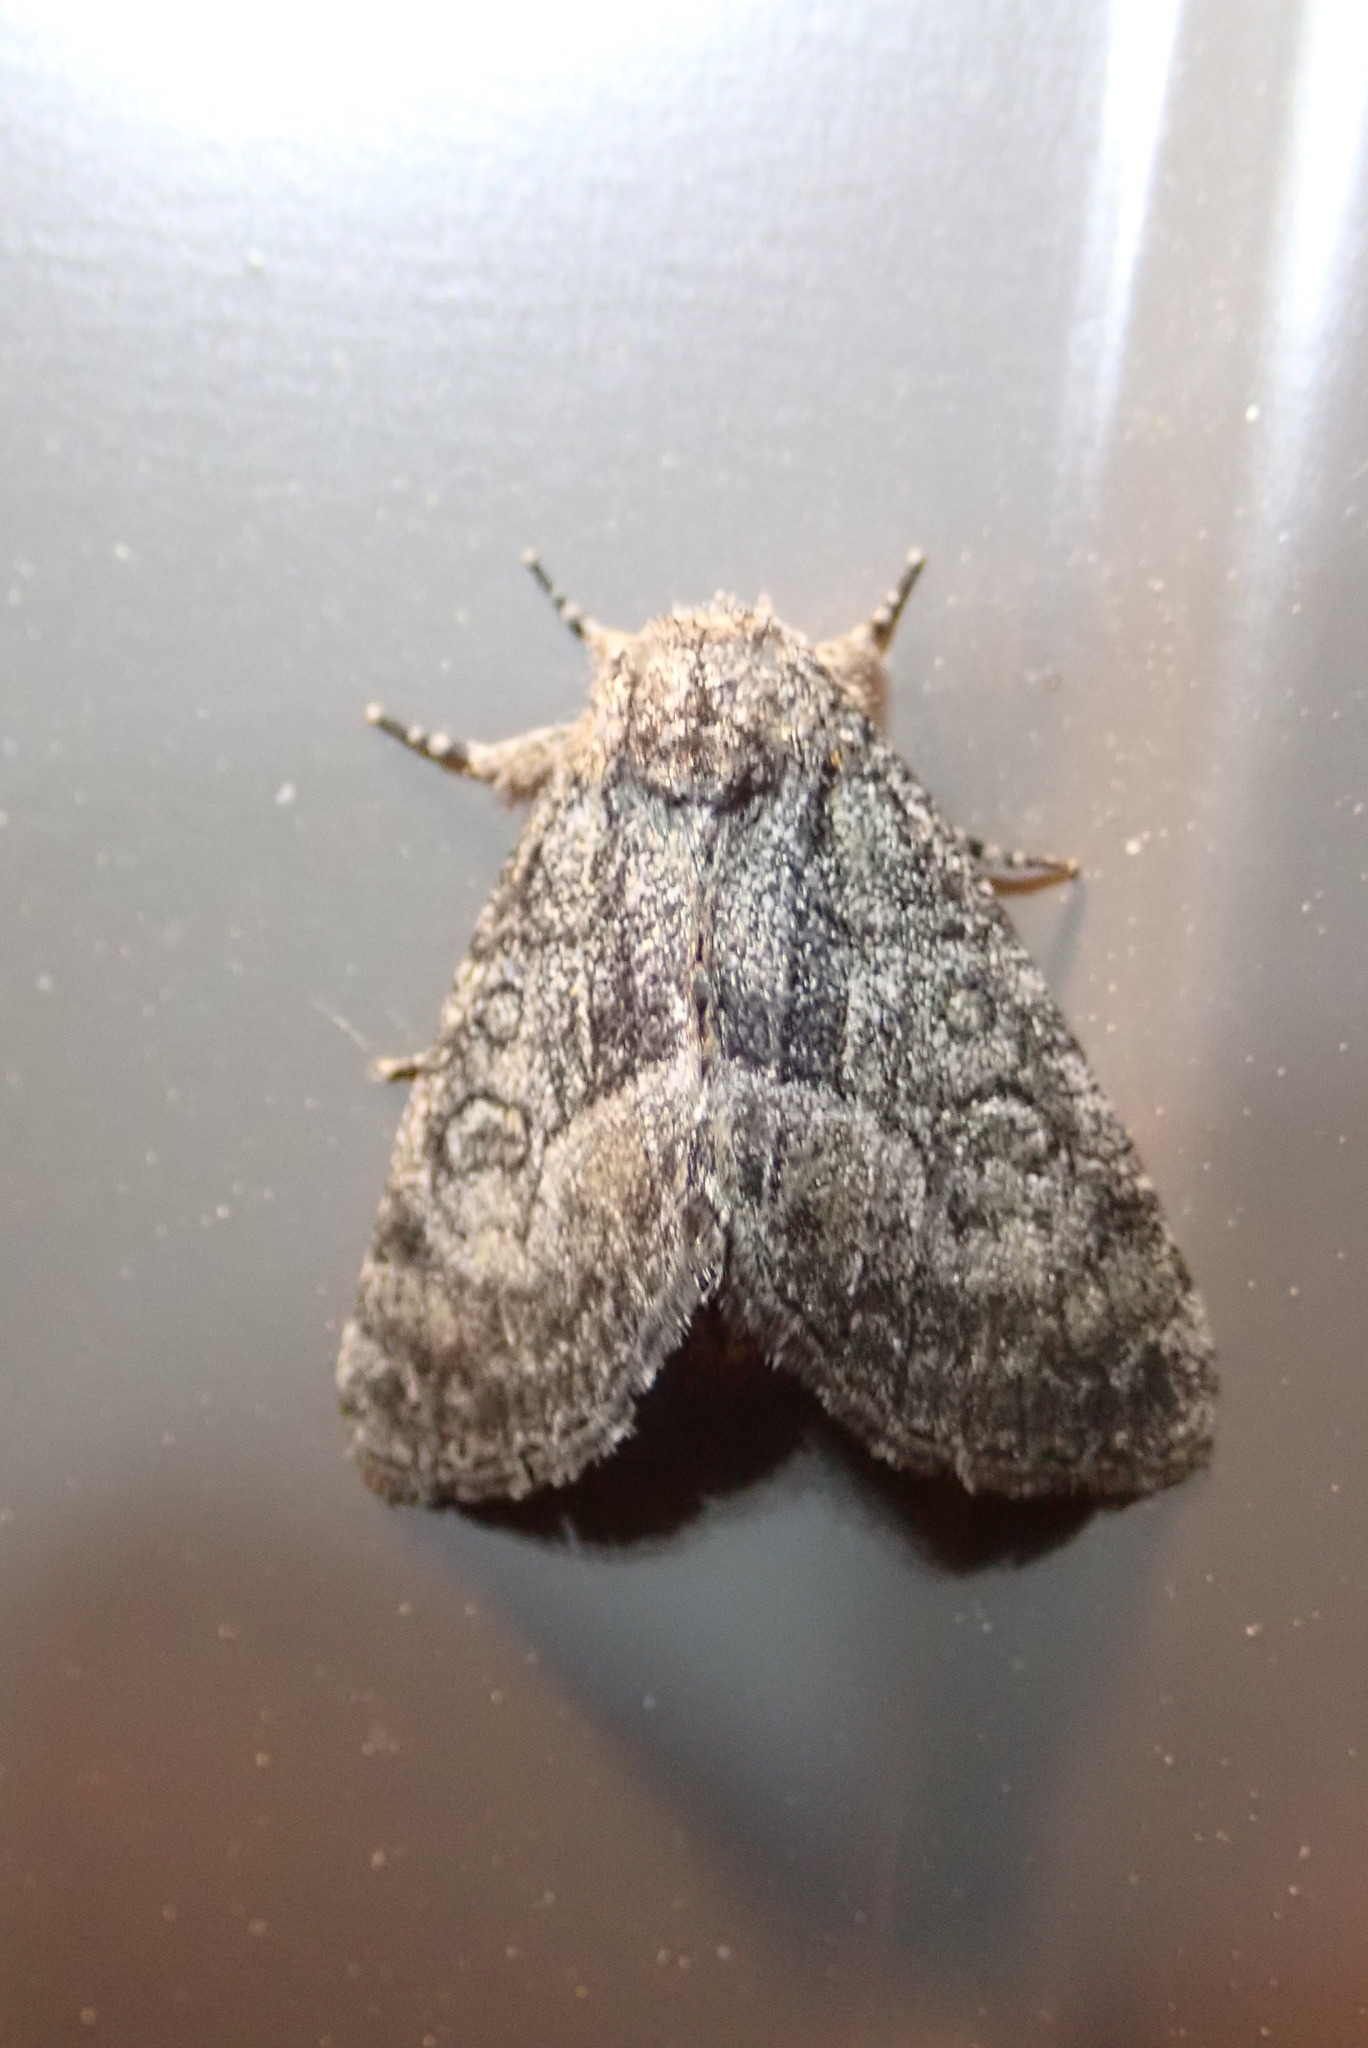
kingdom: Animalia
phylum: Arthropoda
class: Insecta
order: Lepidoptera
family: Noctuidae
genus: Raphia
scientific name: Raphia frater
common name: Brother
